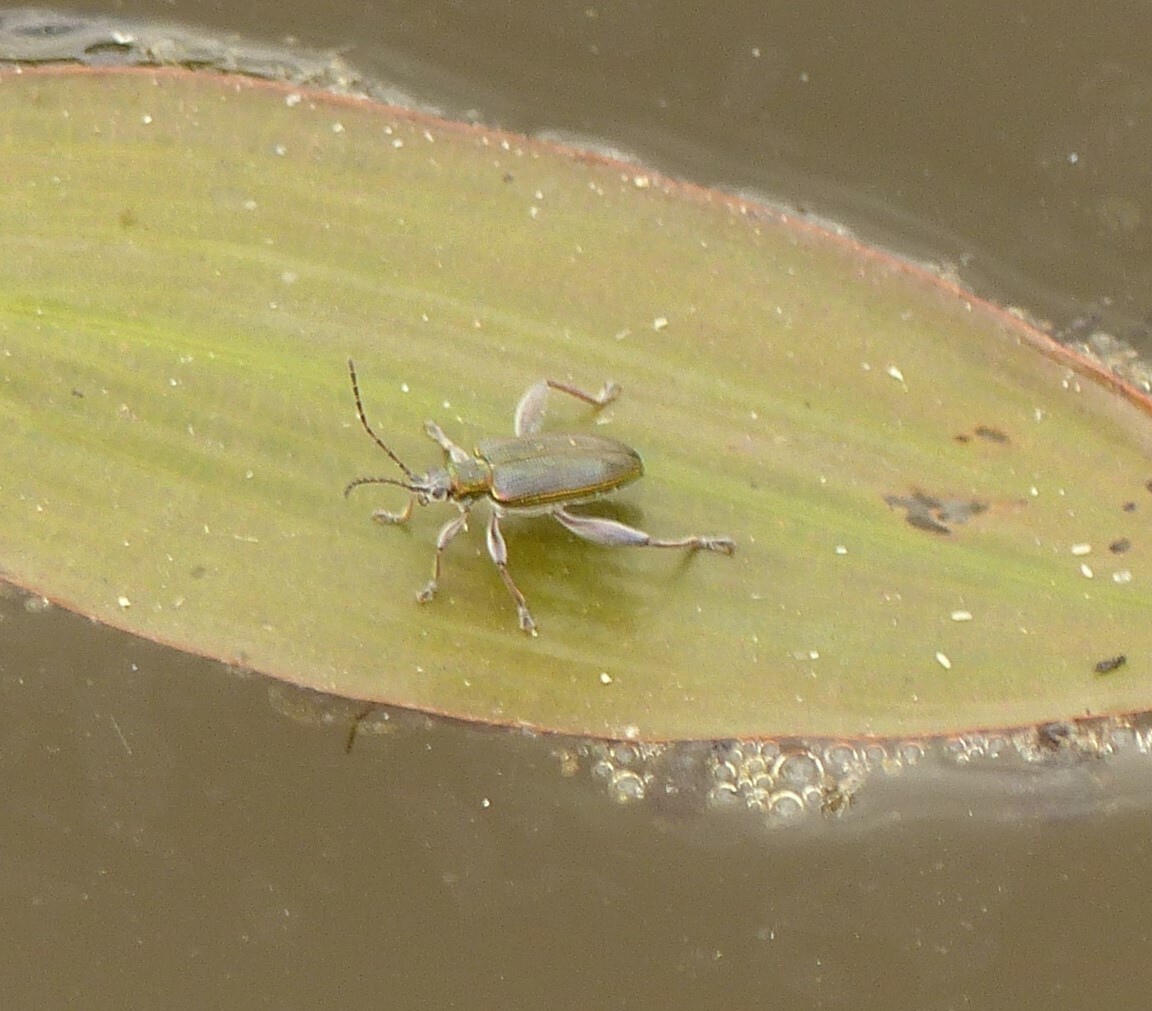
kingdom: Animalia
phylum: Arthropoda
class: Insecta
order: Coleoptera
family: Chrysomelidae
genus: Donacia
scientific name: Donacia versicolorea
